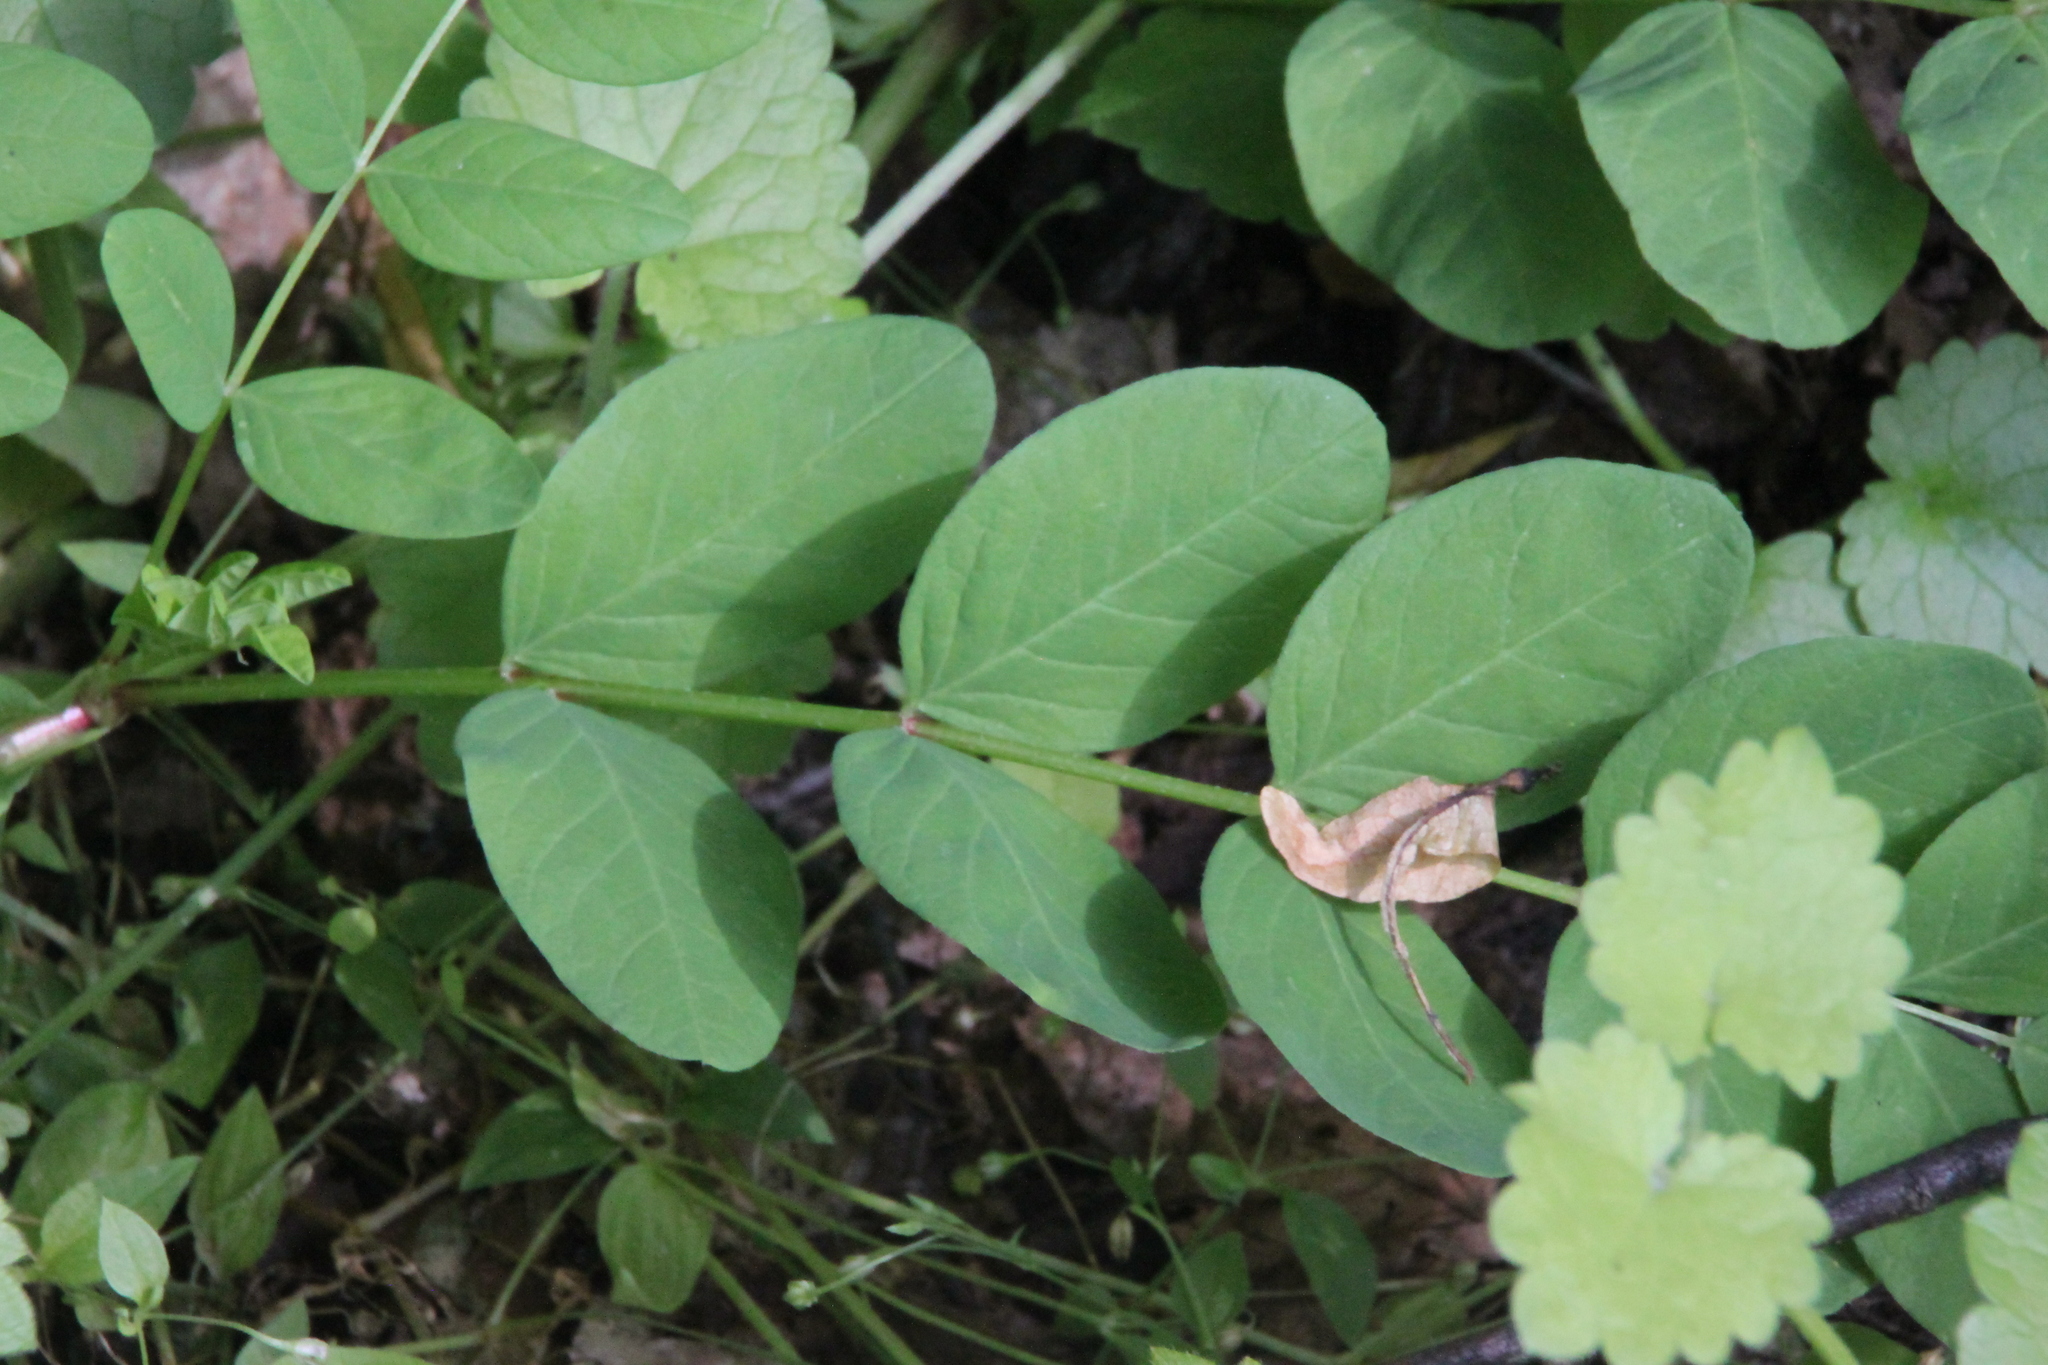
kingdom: Plantae
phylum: Tracheophyta
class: Magnoliopsida
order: Fabales
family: Fabaceae
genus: Astragalus
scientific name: Astragalus glycyphyllos
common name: Wild liquorice
